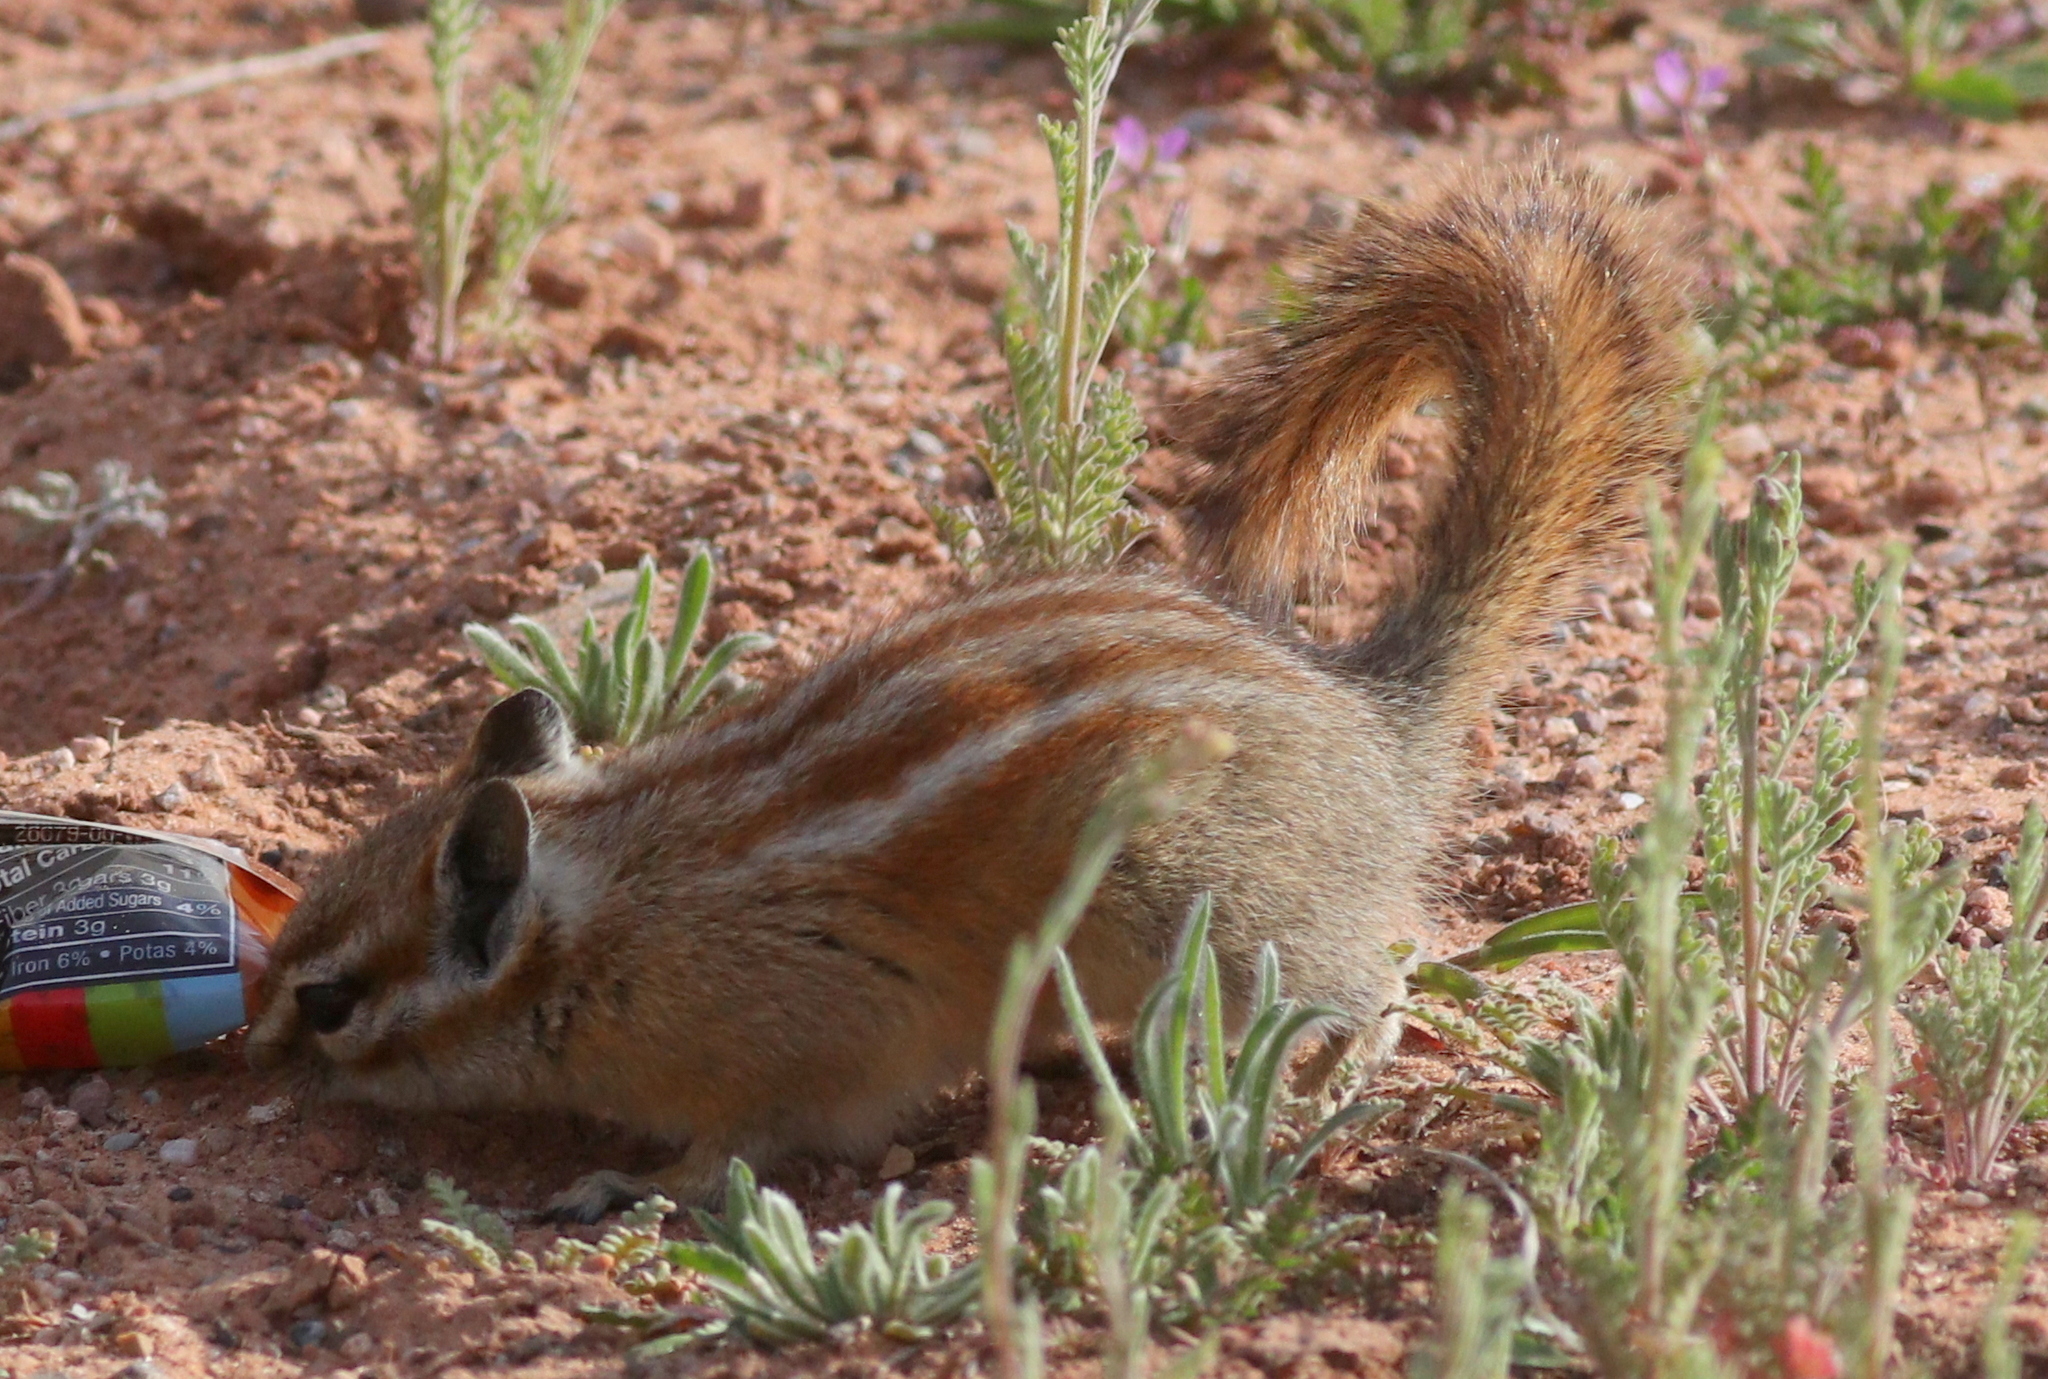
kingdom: Animalia
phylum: Chordata
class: Mammalia
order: Rodentia
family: Sciuridae
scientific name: Sciuridae
